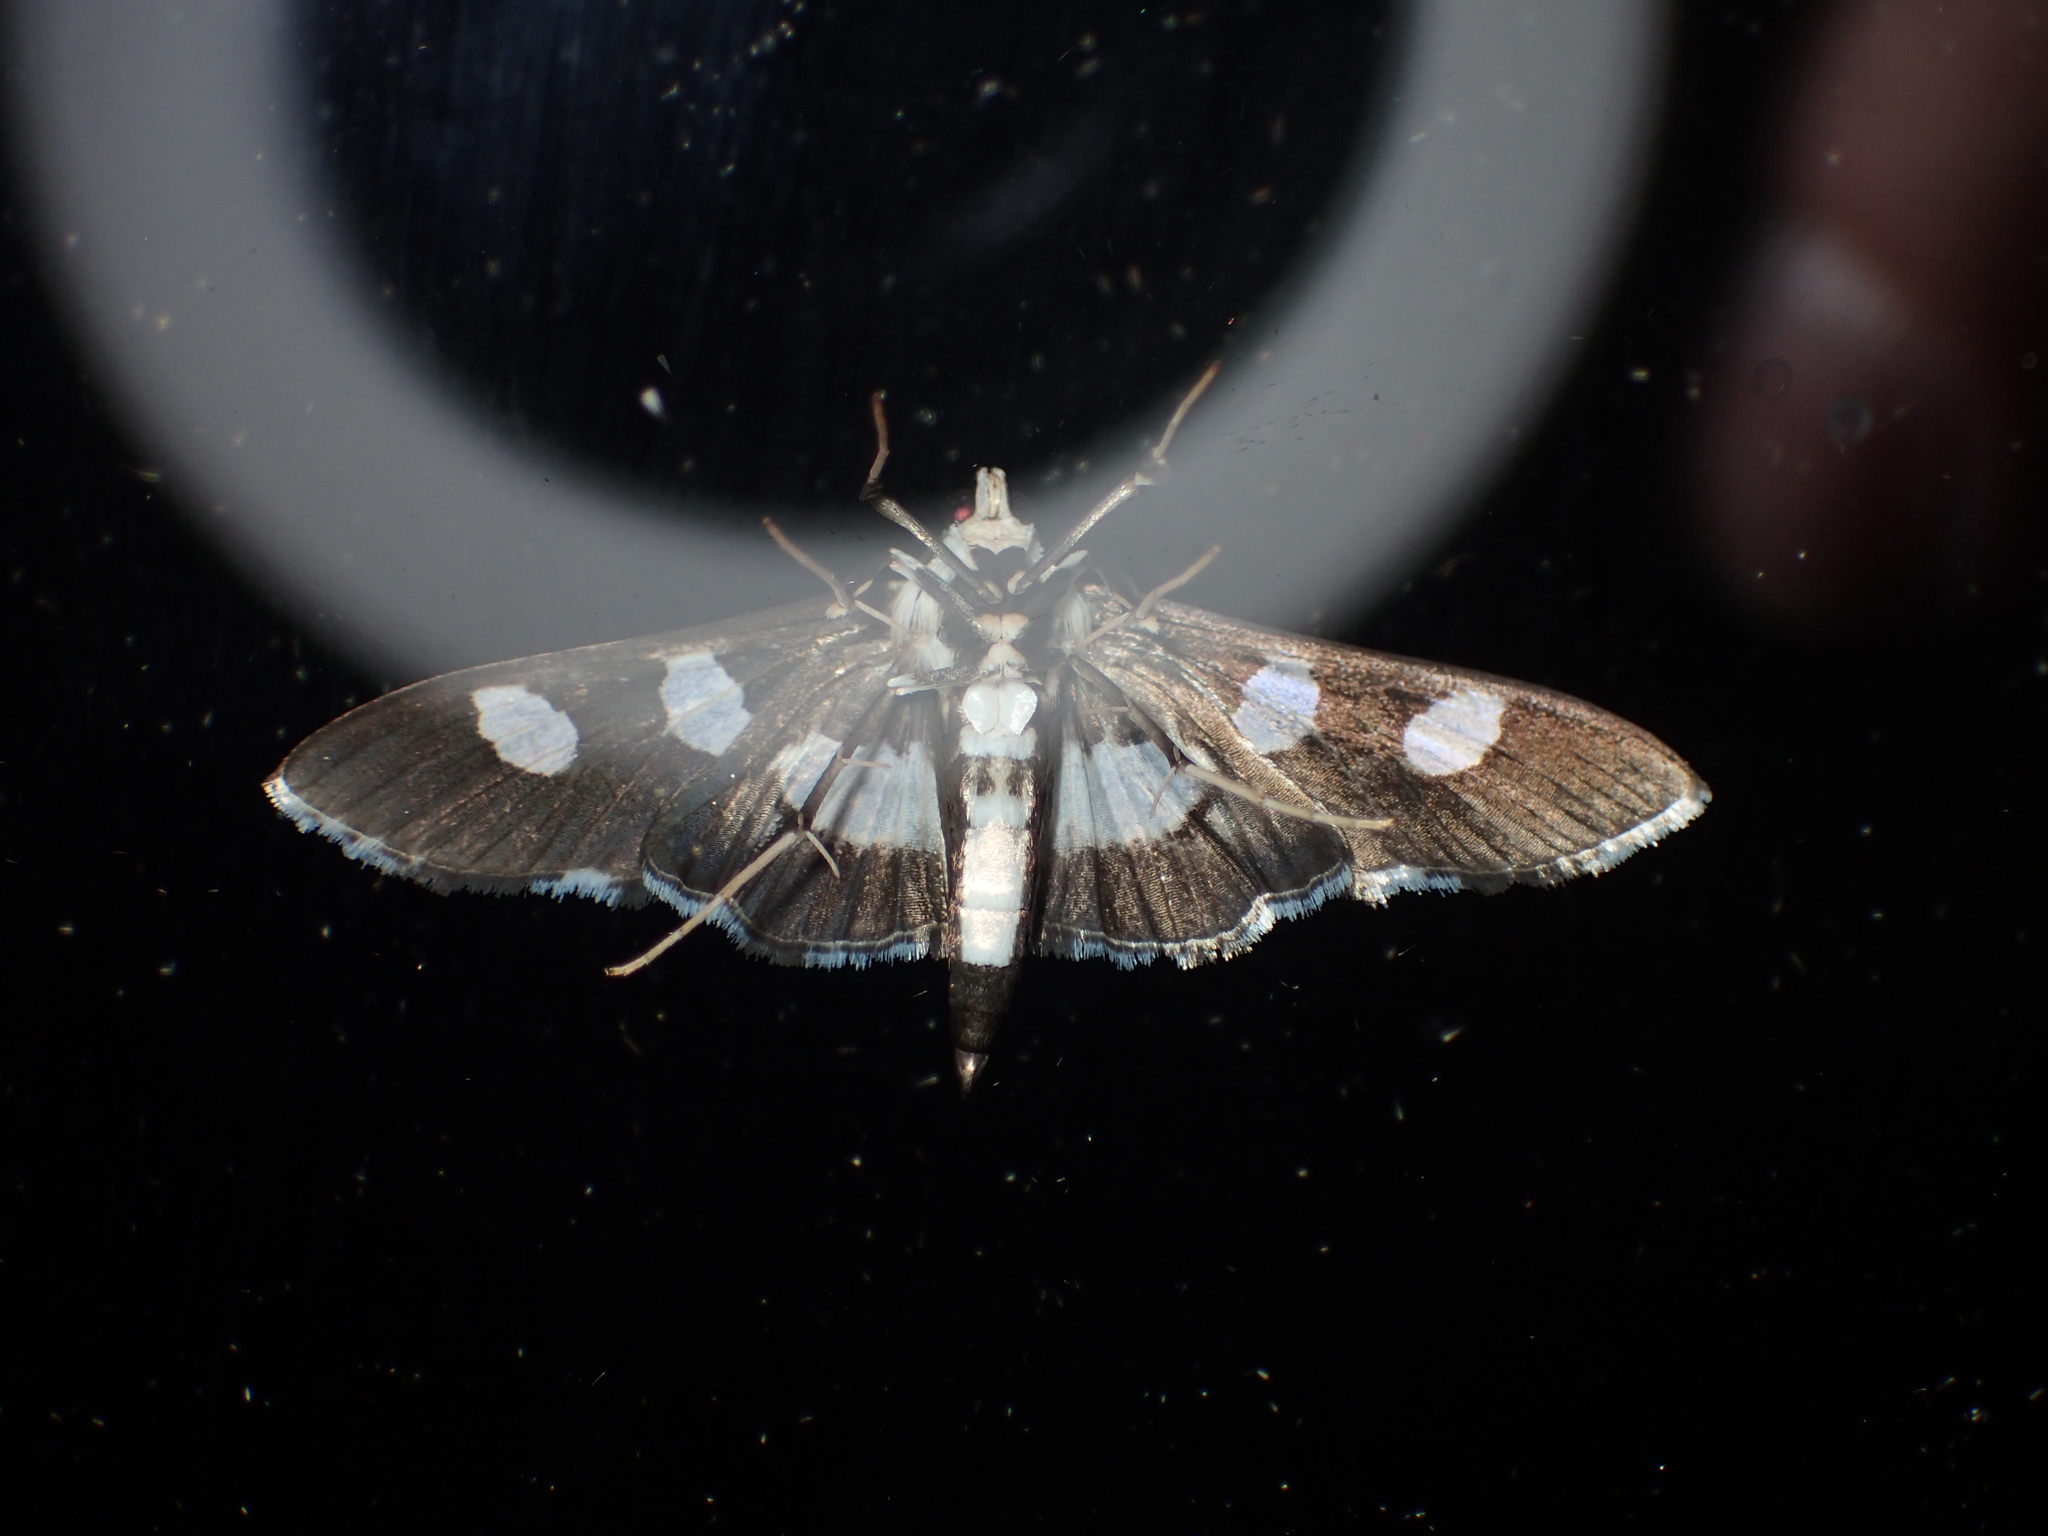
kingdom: Animalia
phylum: Arthropoda
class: Insecta
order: Lepidoptera
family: Crambidae
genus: Desmia
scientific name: Desmia funeralis
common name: Grape leaf folder moth
